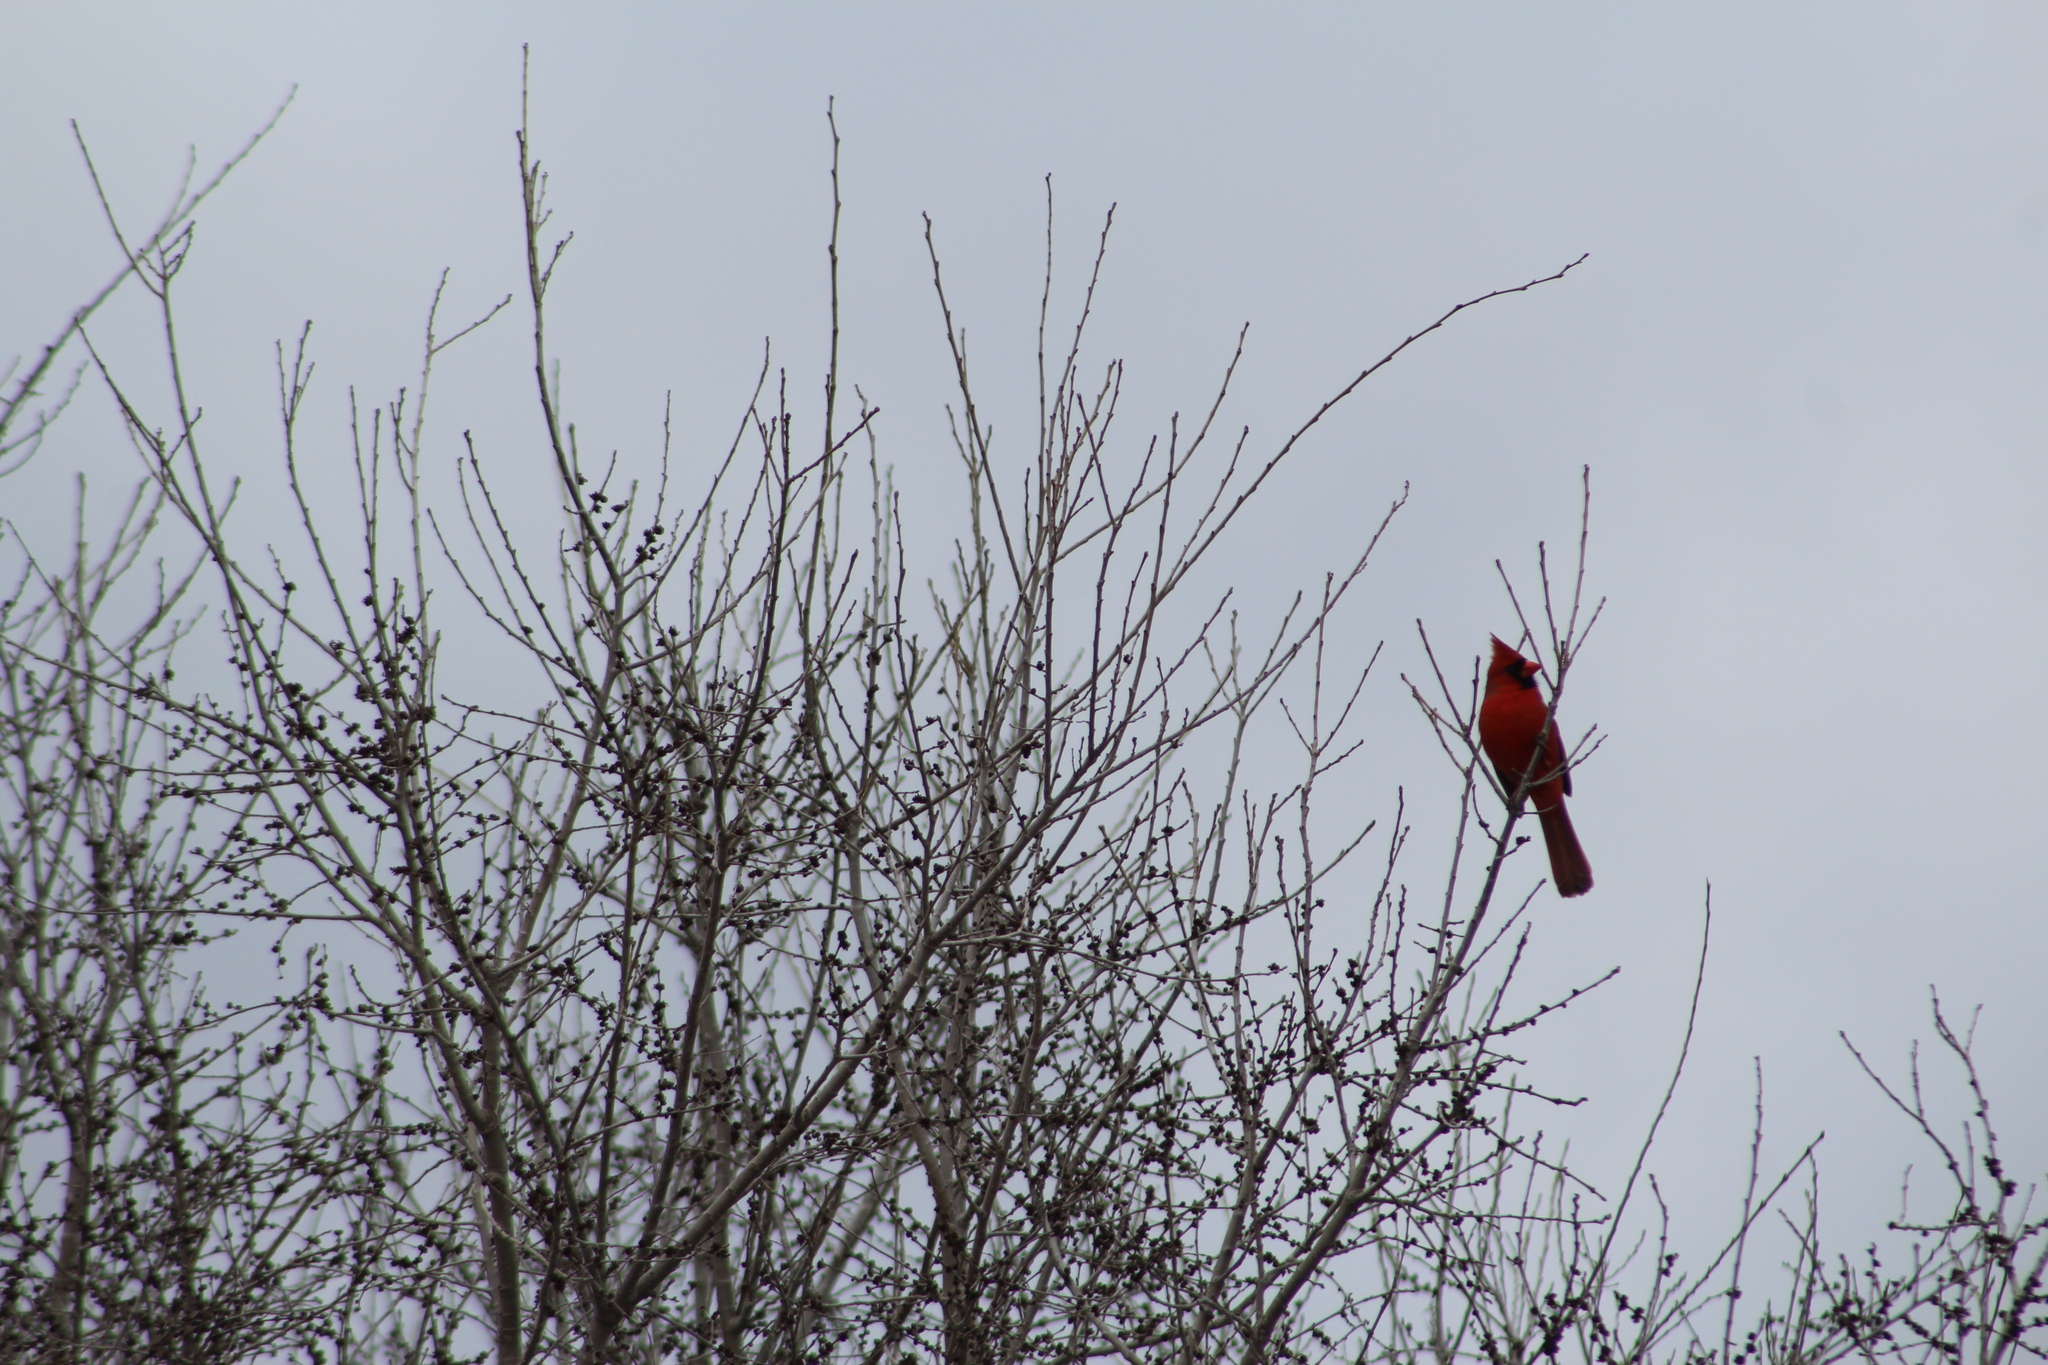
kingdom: Animalia
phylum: Chordata
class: Aves
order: Passeriformes
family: Cardinalidae
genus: Cardinalis
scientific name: Cardinalis cardinalis
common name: Northern cardinal
